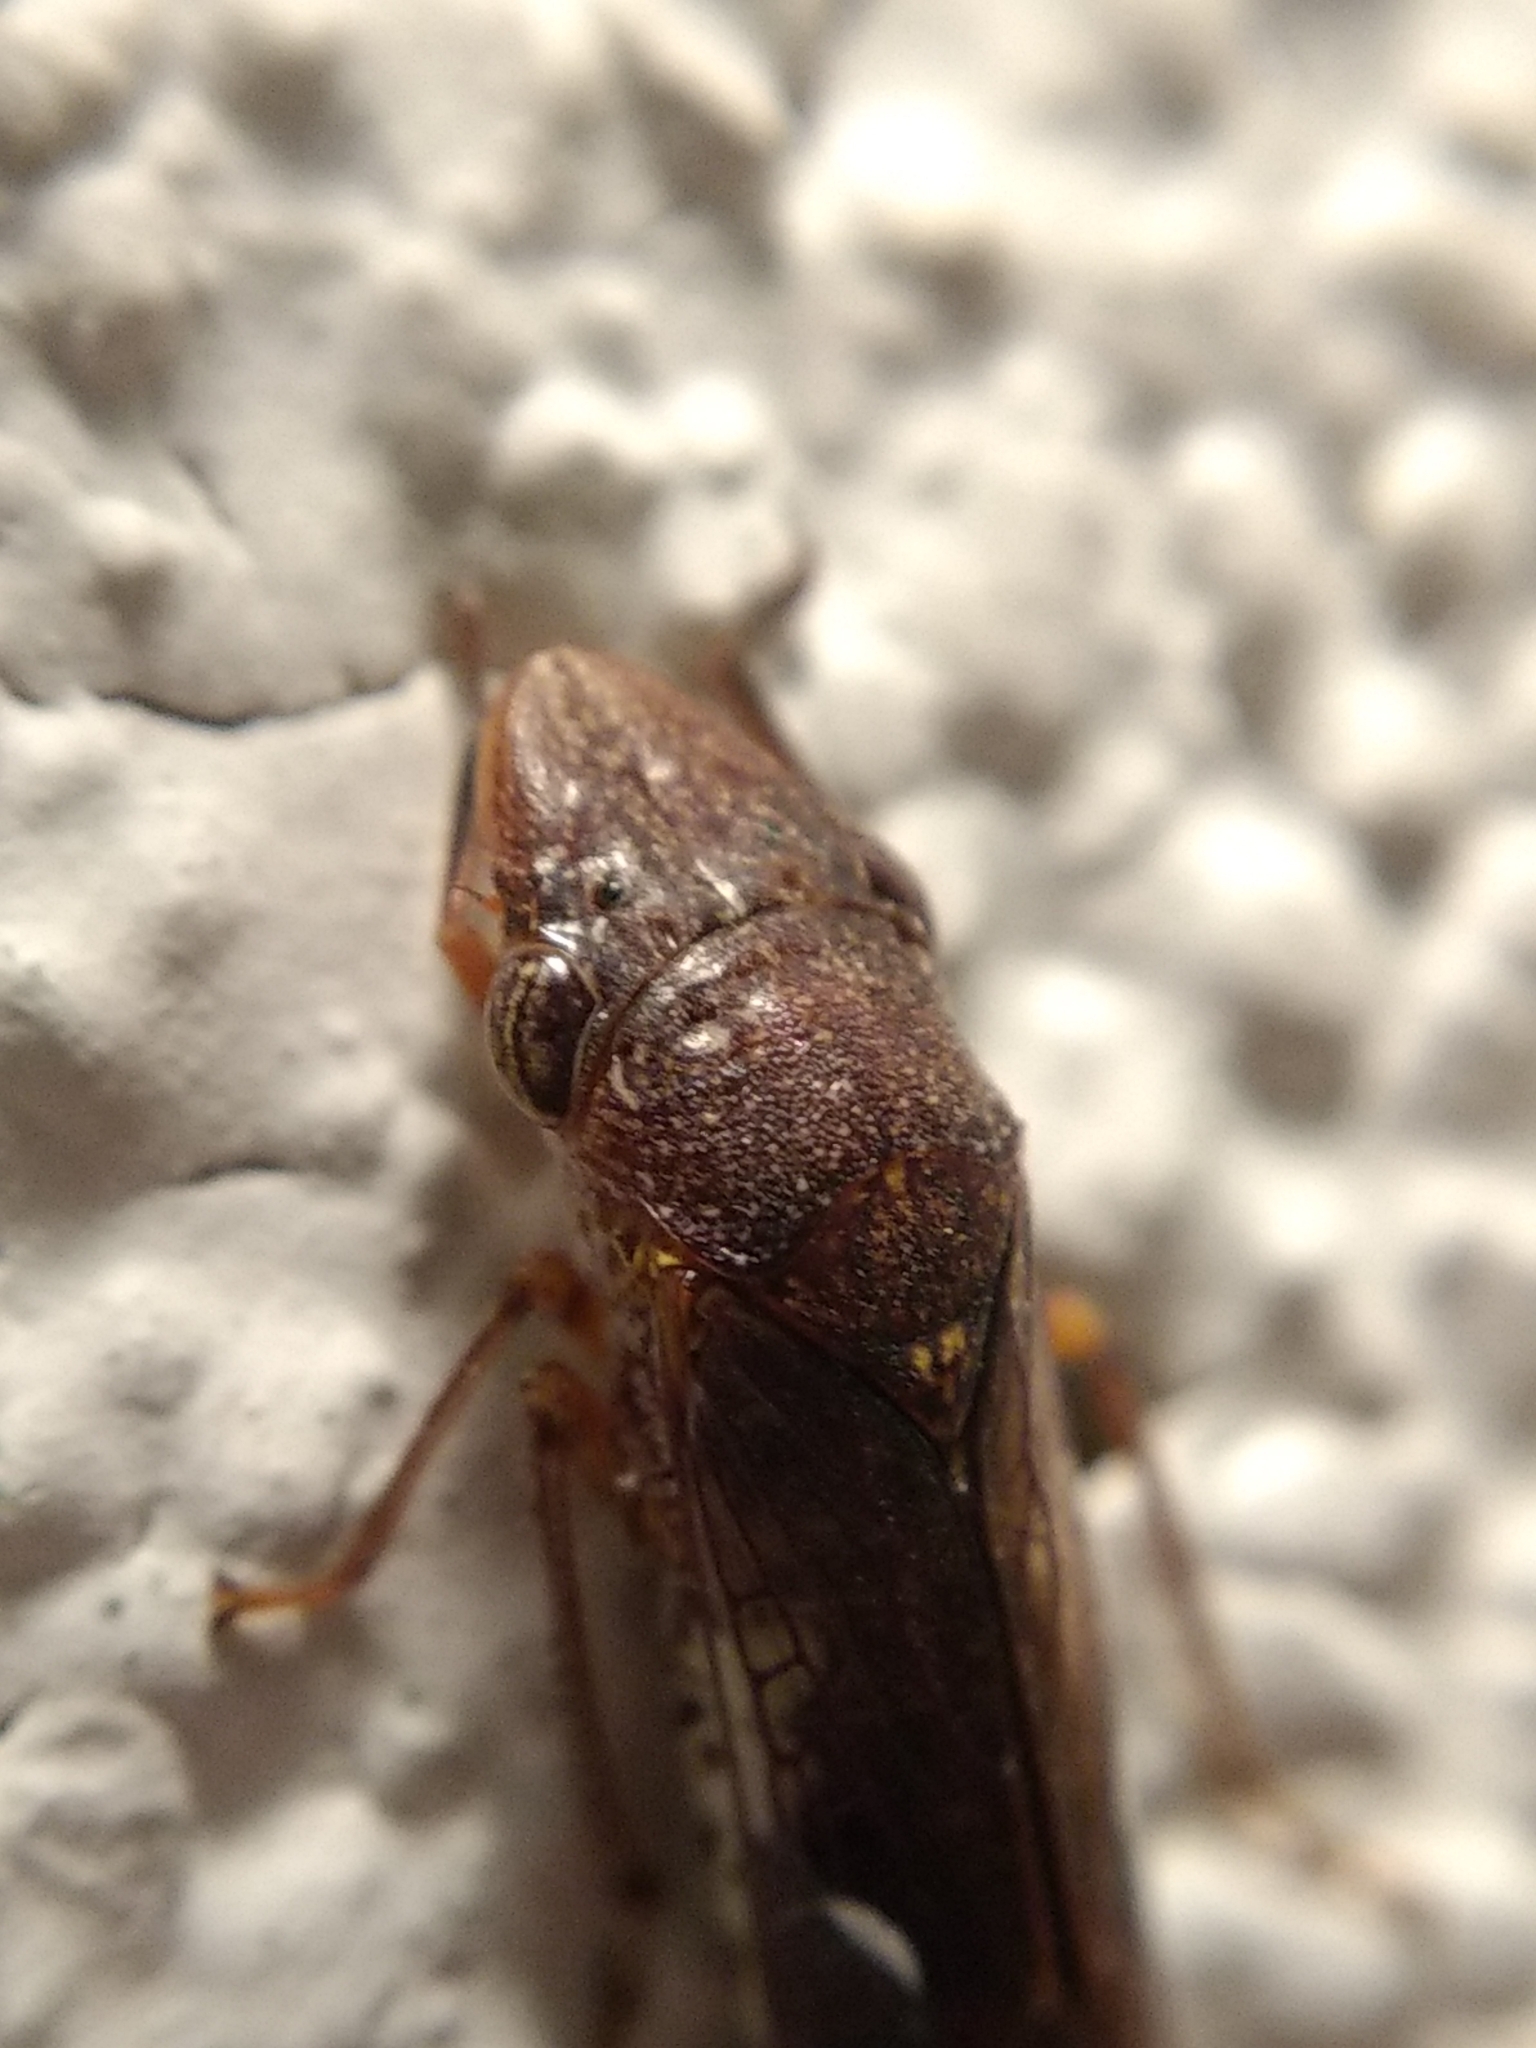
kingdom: Animalia
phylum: Arthropoda
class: Insecta
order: Hemiptera
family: Cicadellidae
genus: Homalodisca
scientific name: Homalodisca vitripennis
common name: Glassy-winged sharpshooter
